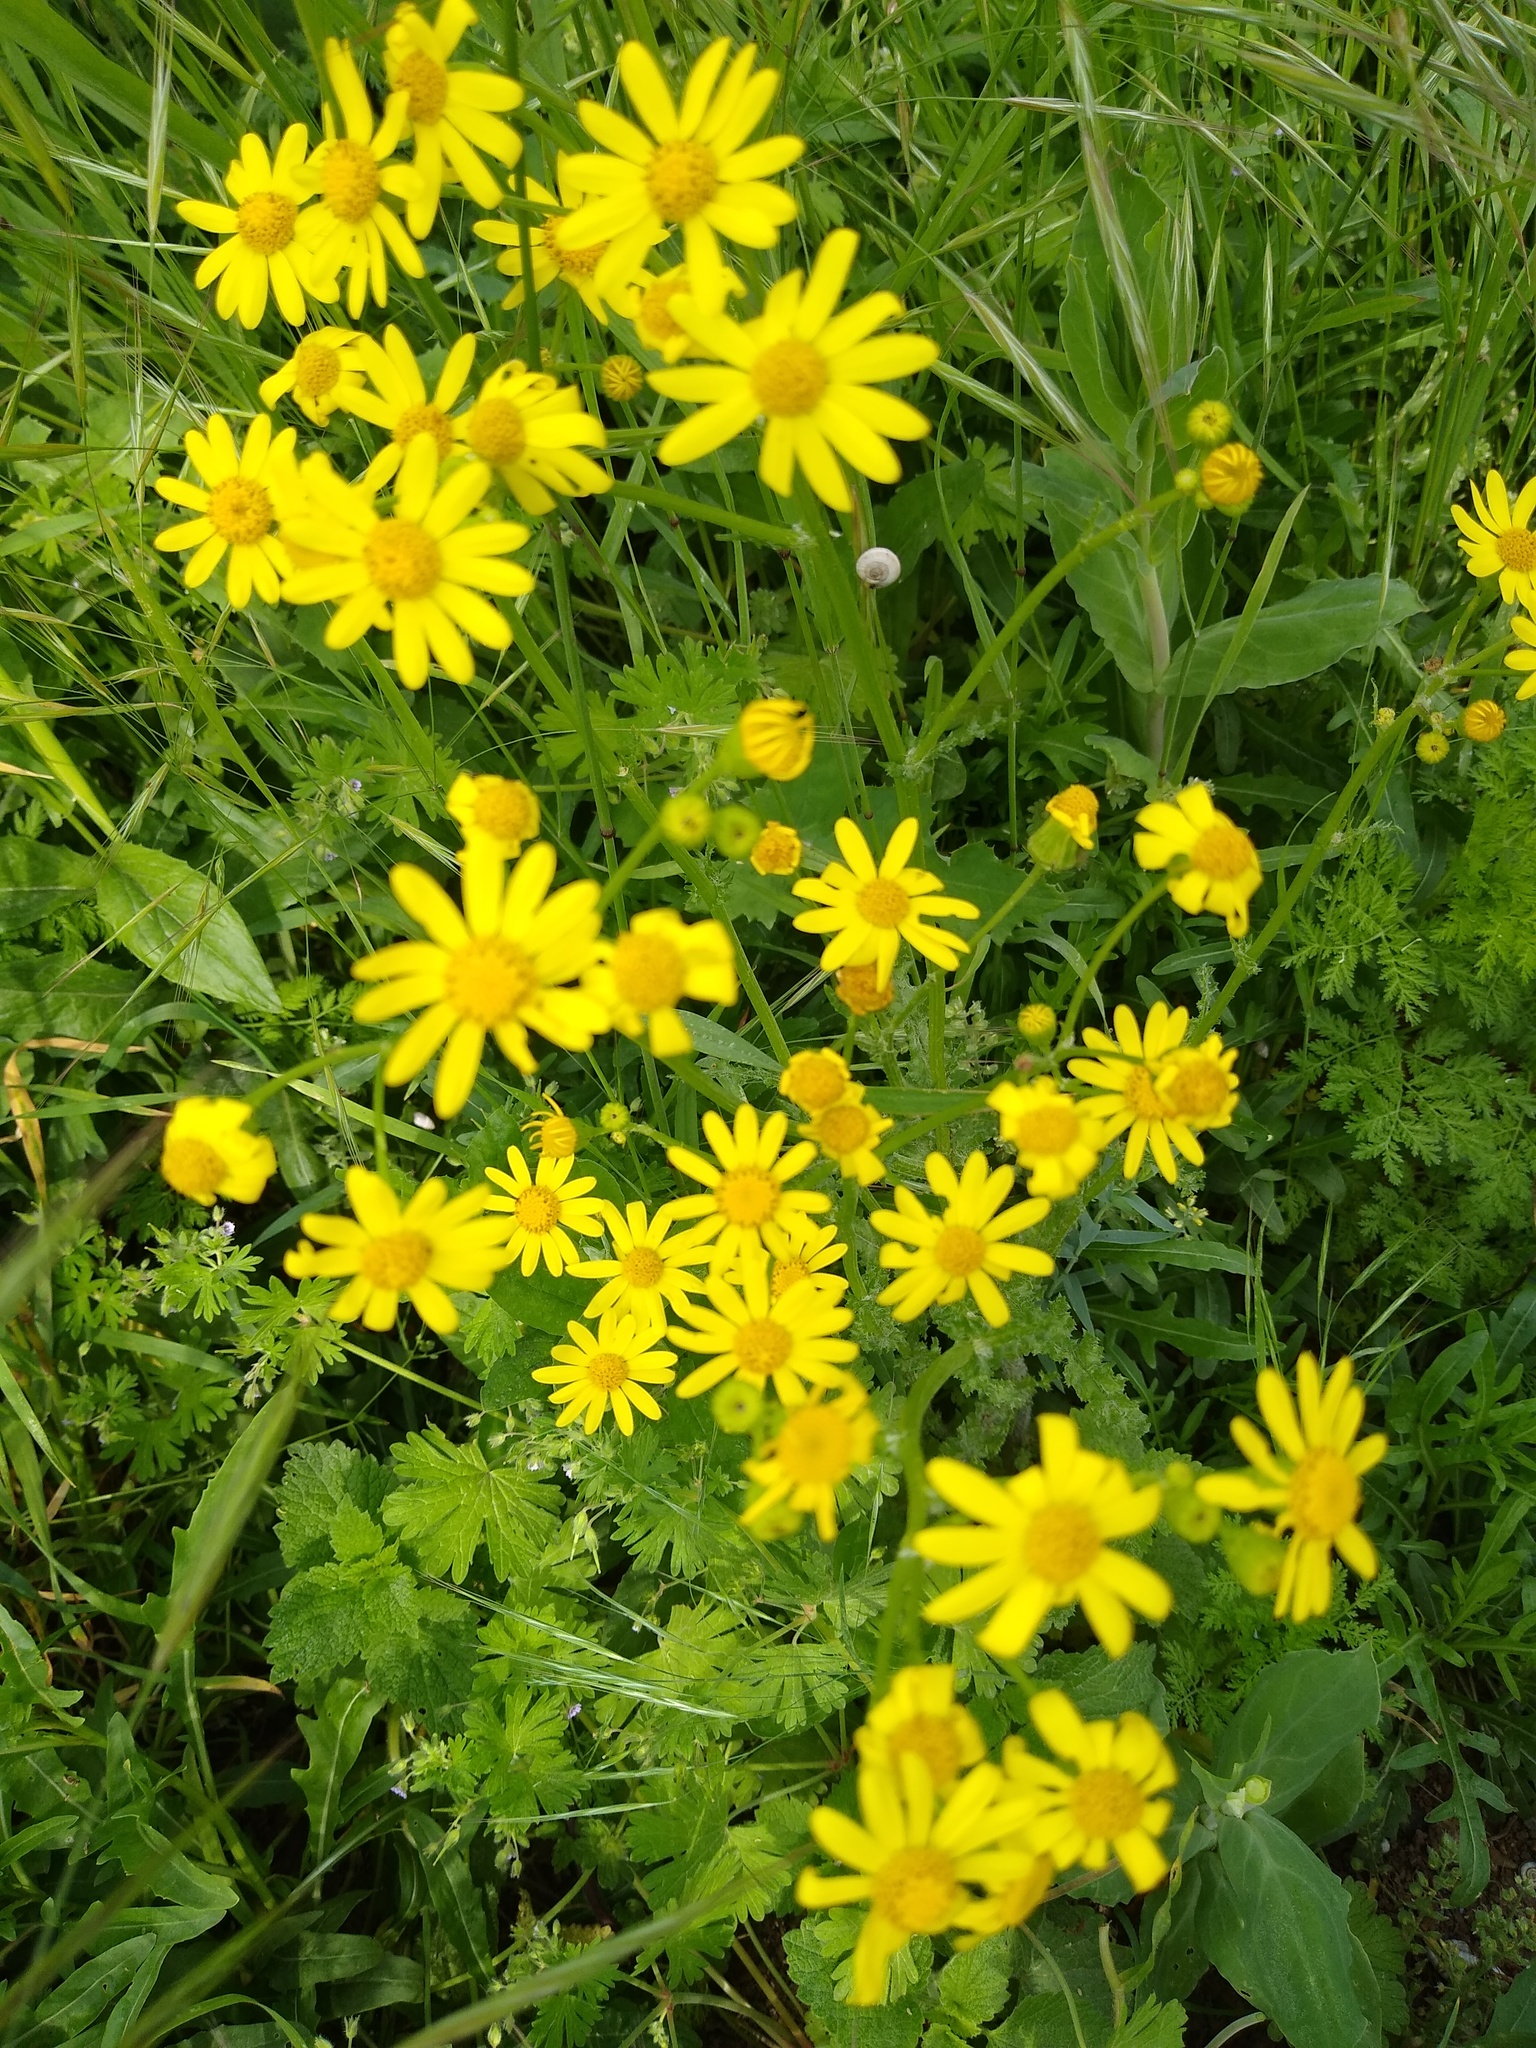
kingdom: Plantae
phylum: Tracheophyta
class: Magnoliopsida
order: Asterales
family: Asteraceae
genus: Senecio
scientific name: Senecio vernalis
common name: Eastern groundsel
